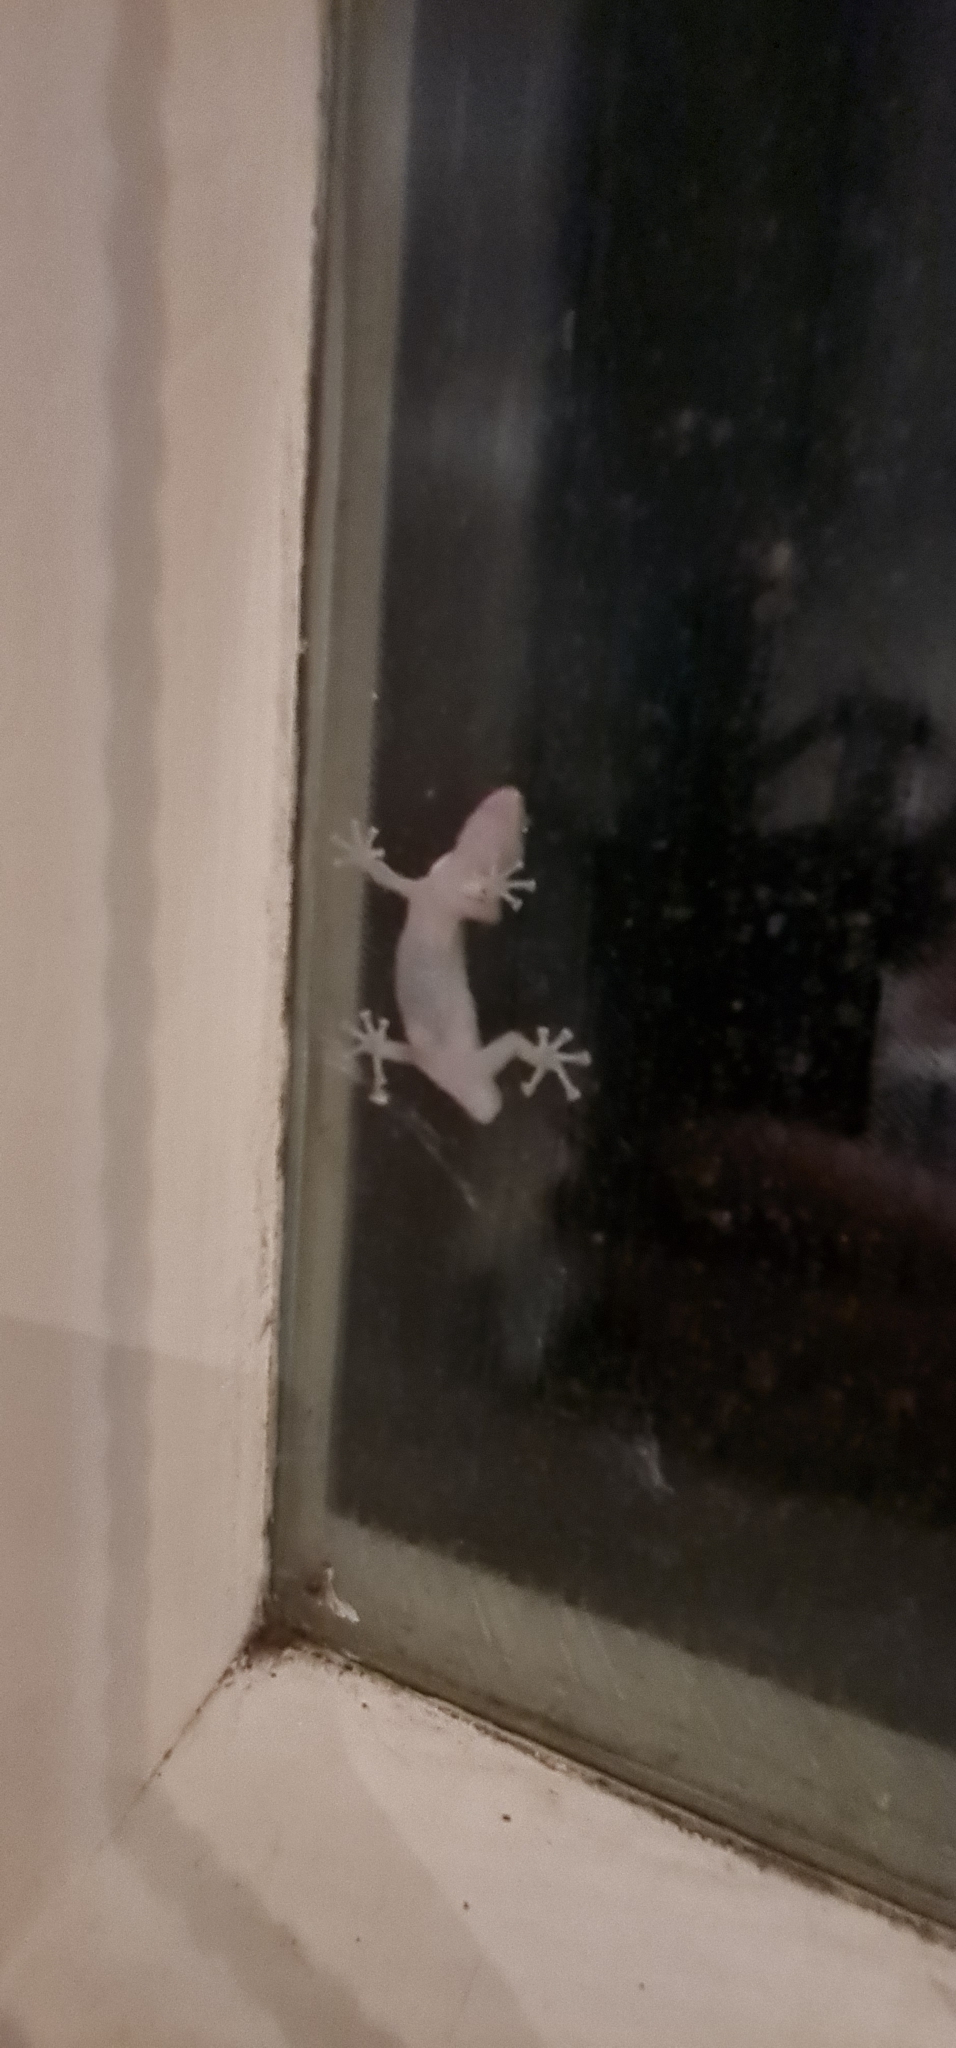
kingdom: Animalia
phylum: Chordata
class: Squamata
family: Gekkonidae
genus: Christinus
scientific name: Christinus marmoratus
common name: Marbled gecko
